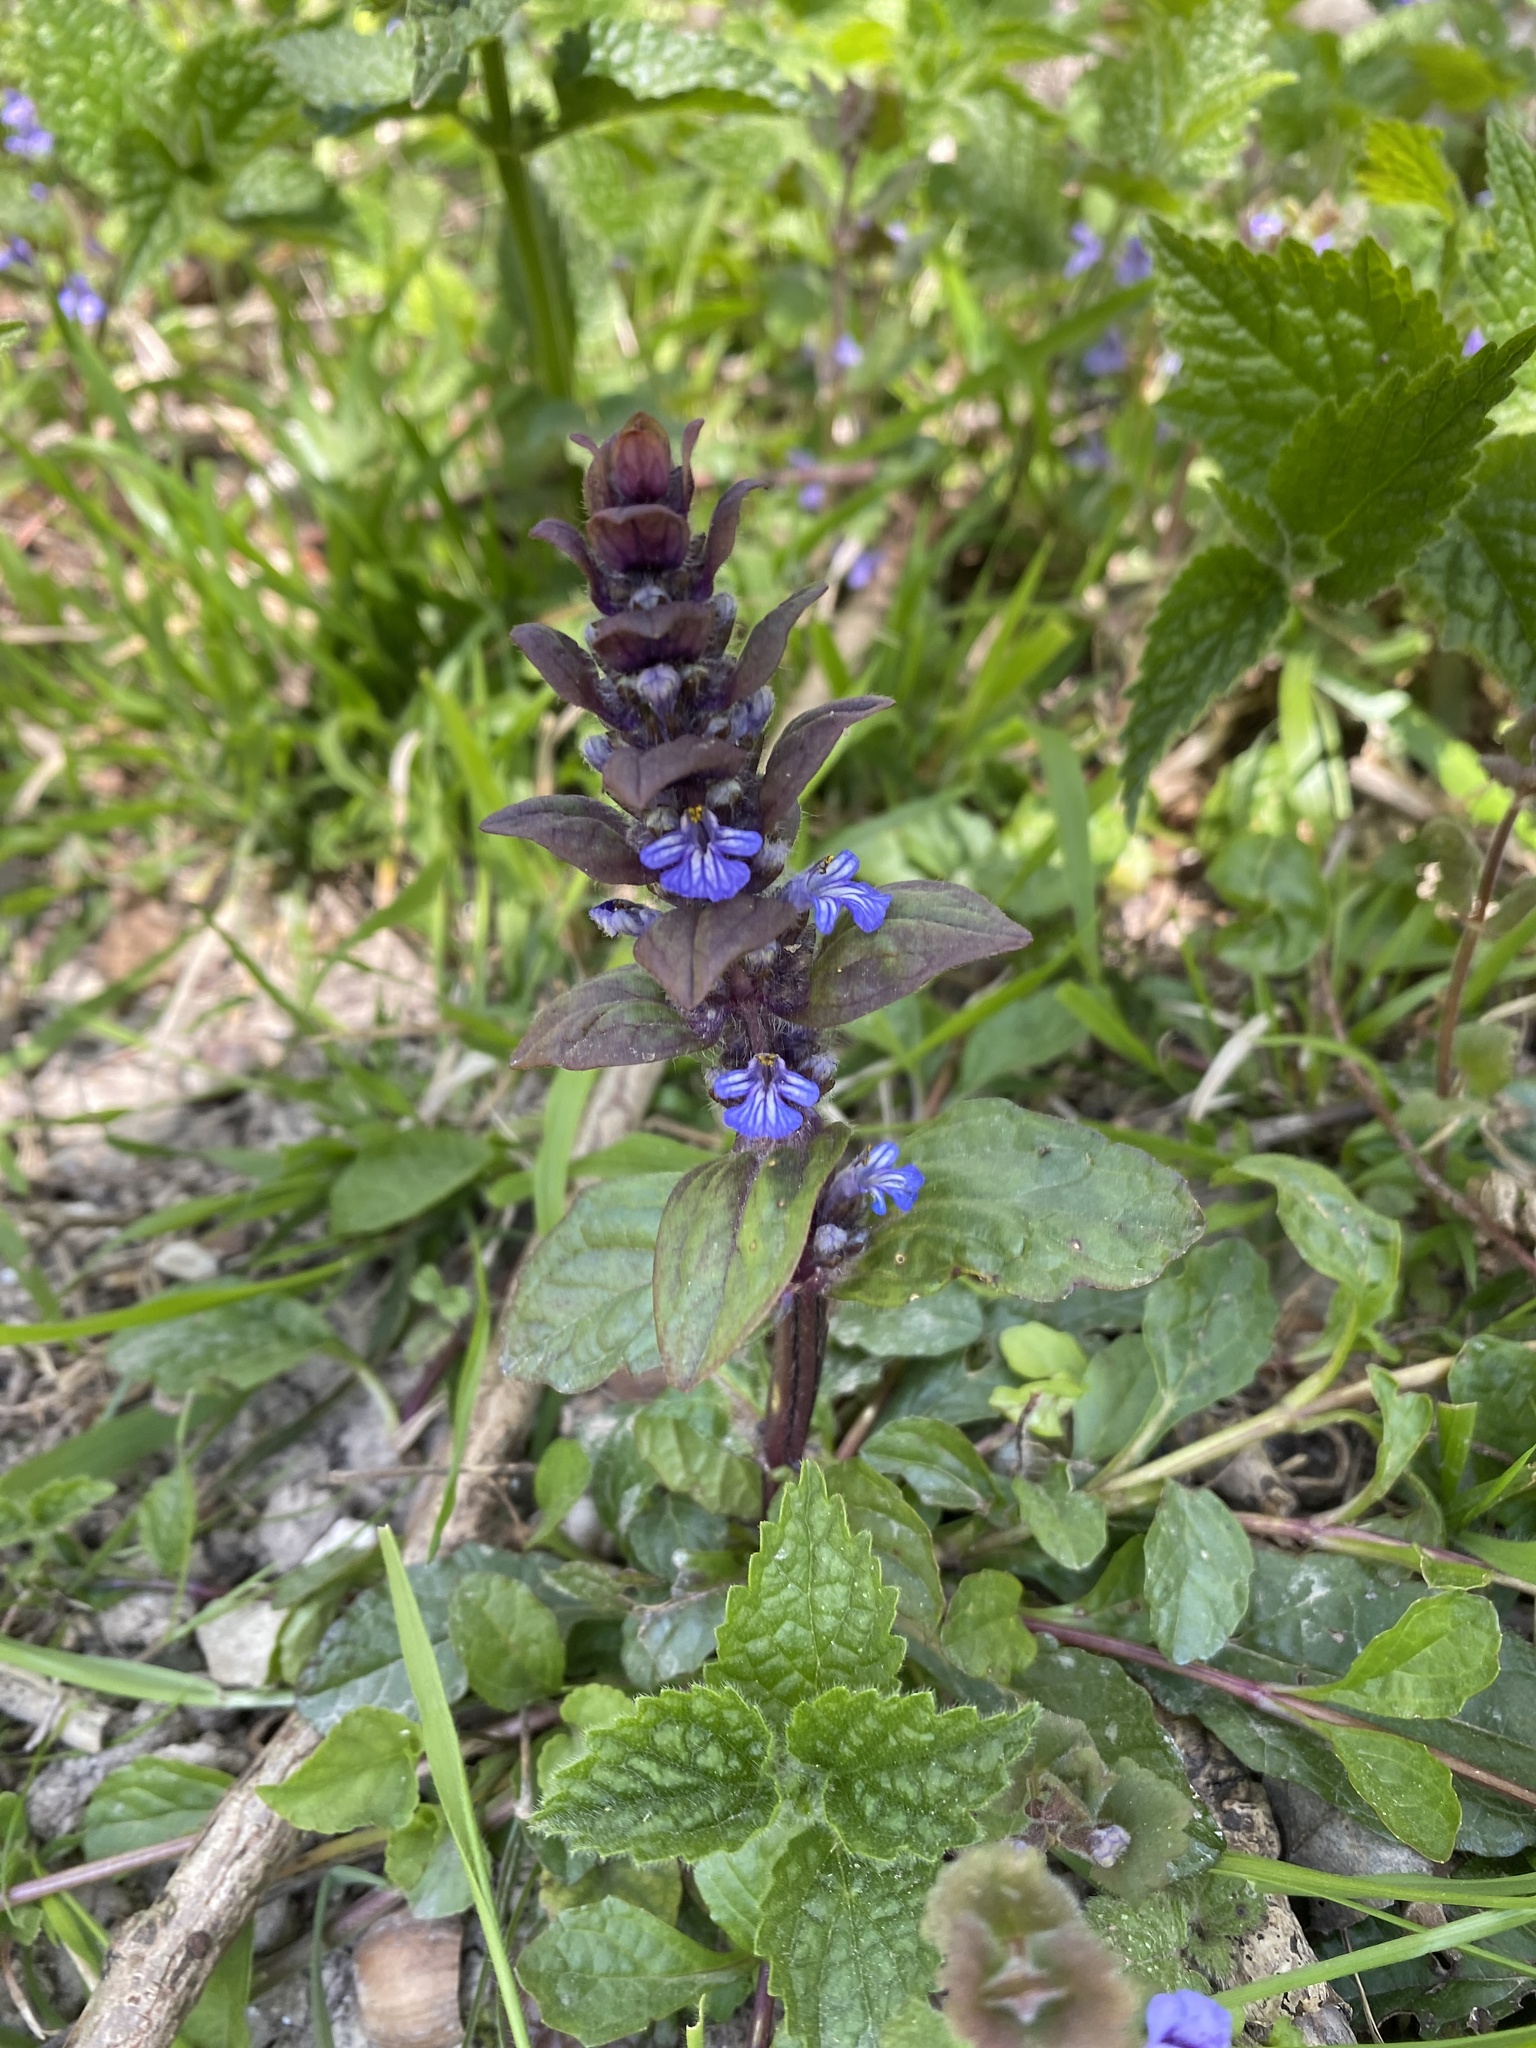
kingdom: Plantae
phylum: Tracheophyta
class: Magnoliopsida
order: Lamiales
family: Lamiaceae
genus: Ajuga
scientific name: Ajuga reptans
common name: Bugle
